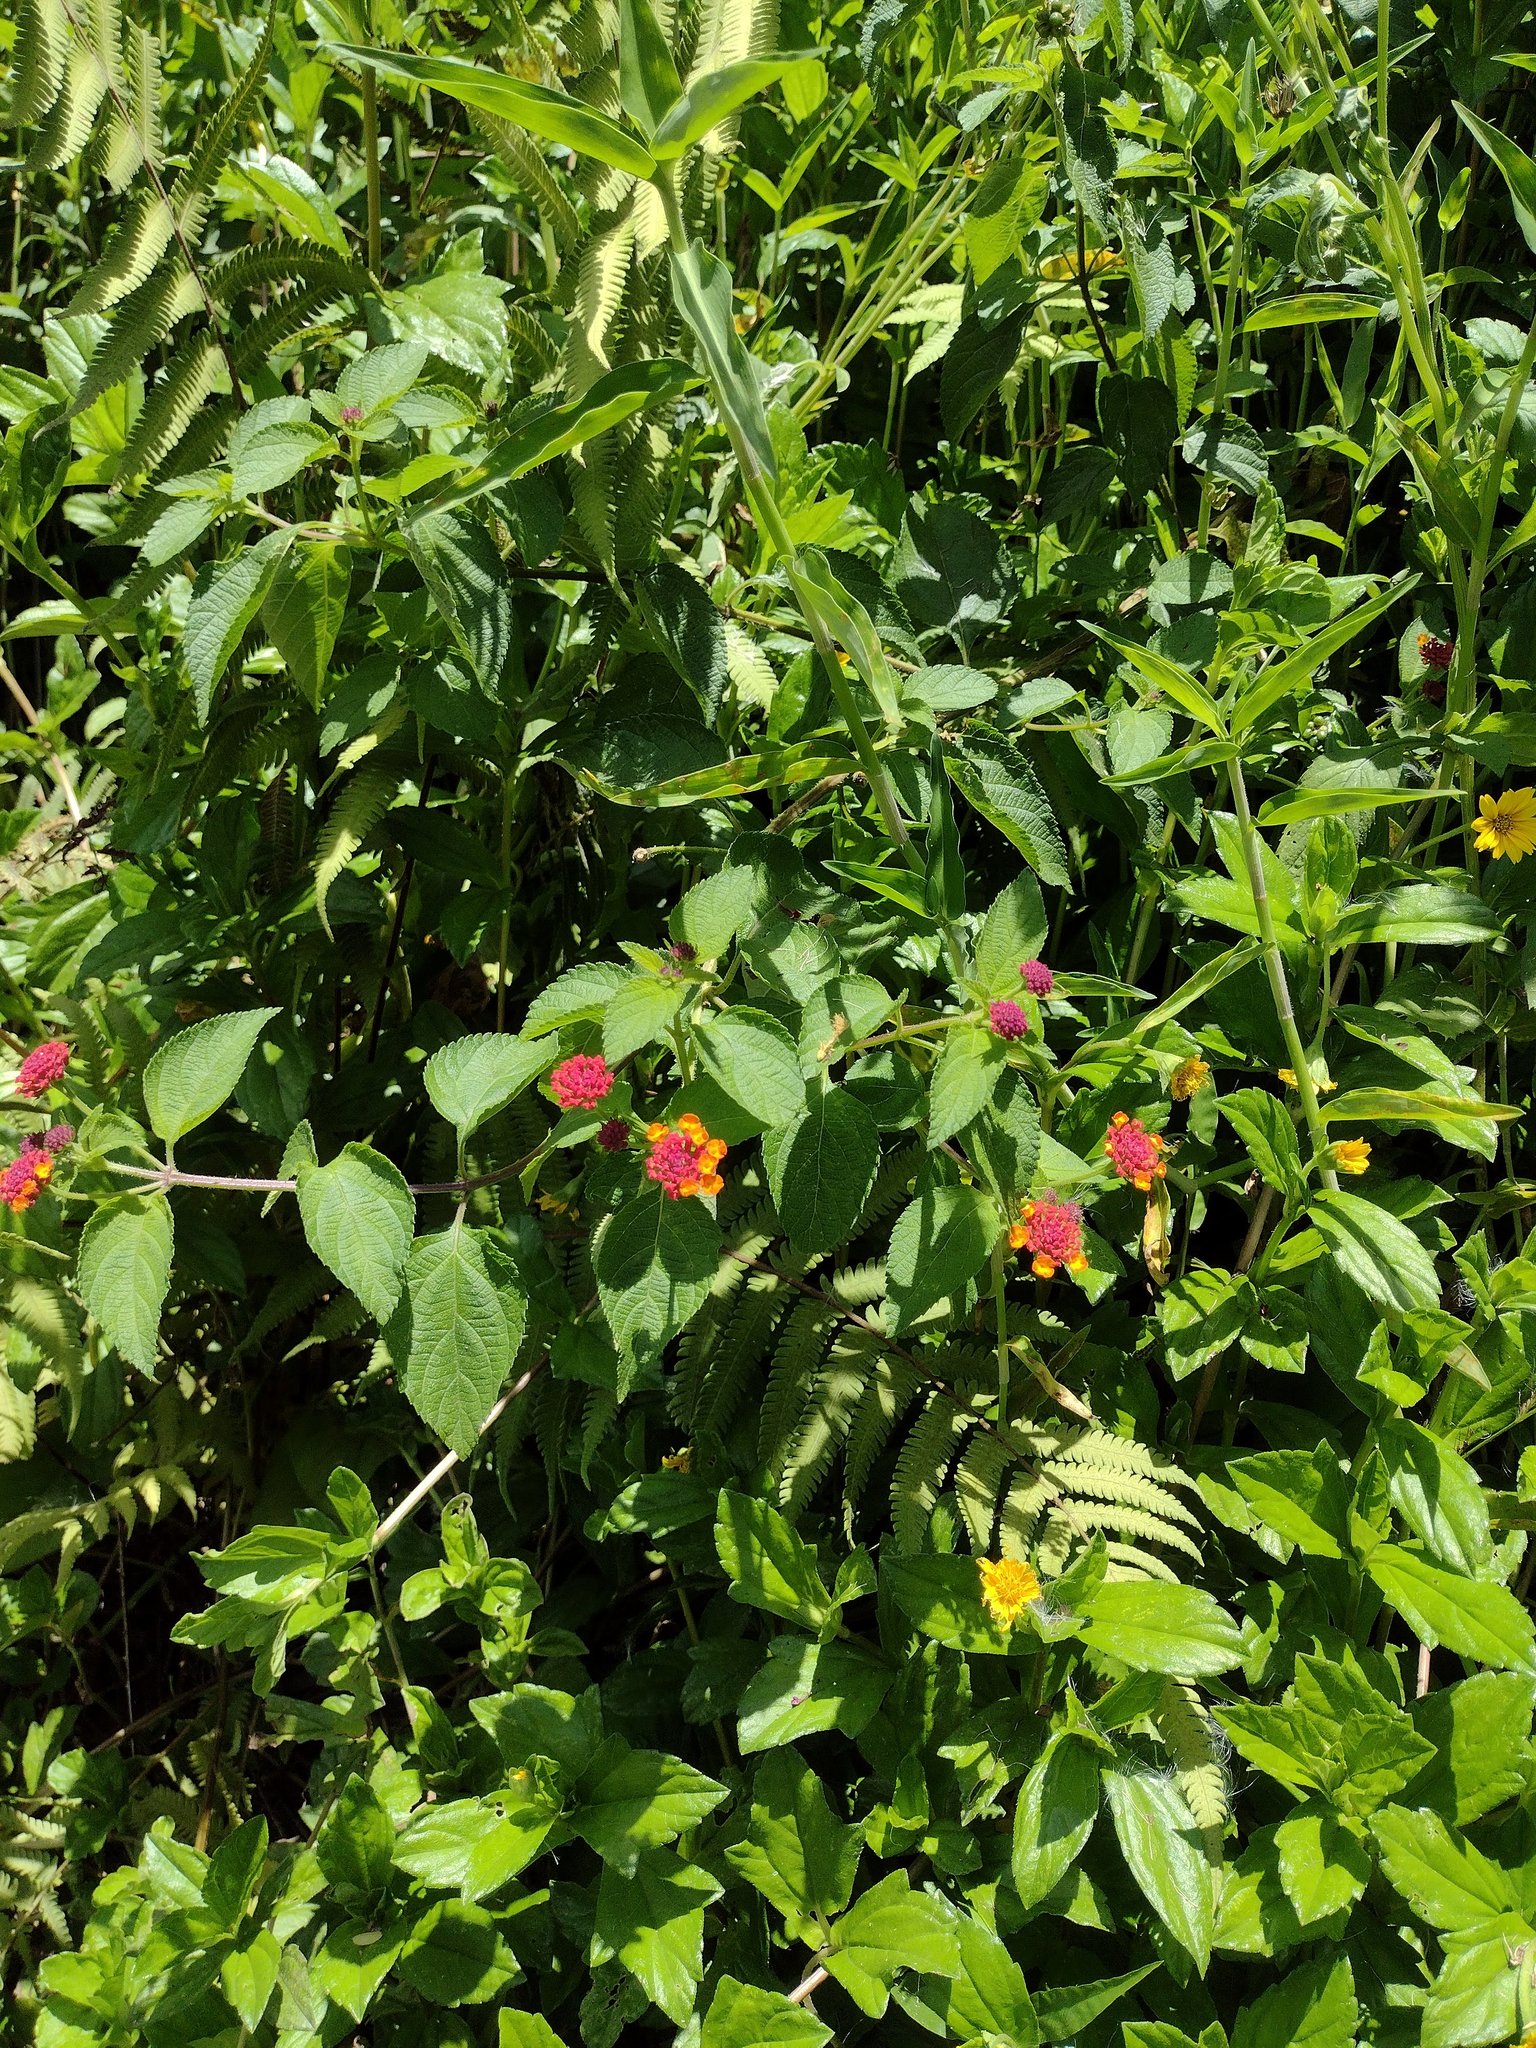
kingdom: Plantae
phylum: Tracheophyta
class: Magnoliopsida
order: Lamiales
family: Verbenaceae
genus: Lantana
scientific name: Lantana camara
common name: Lantana
